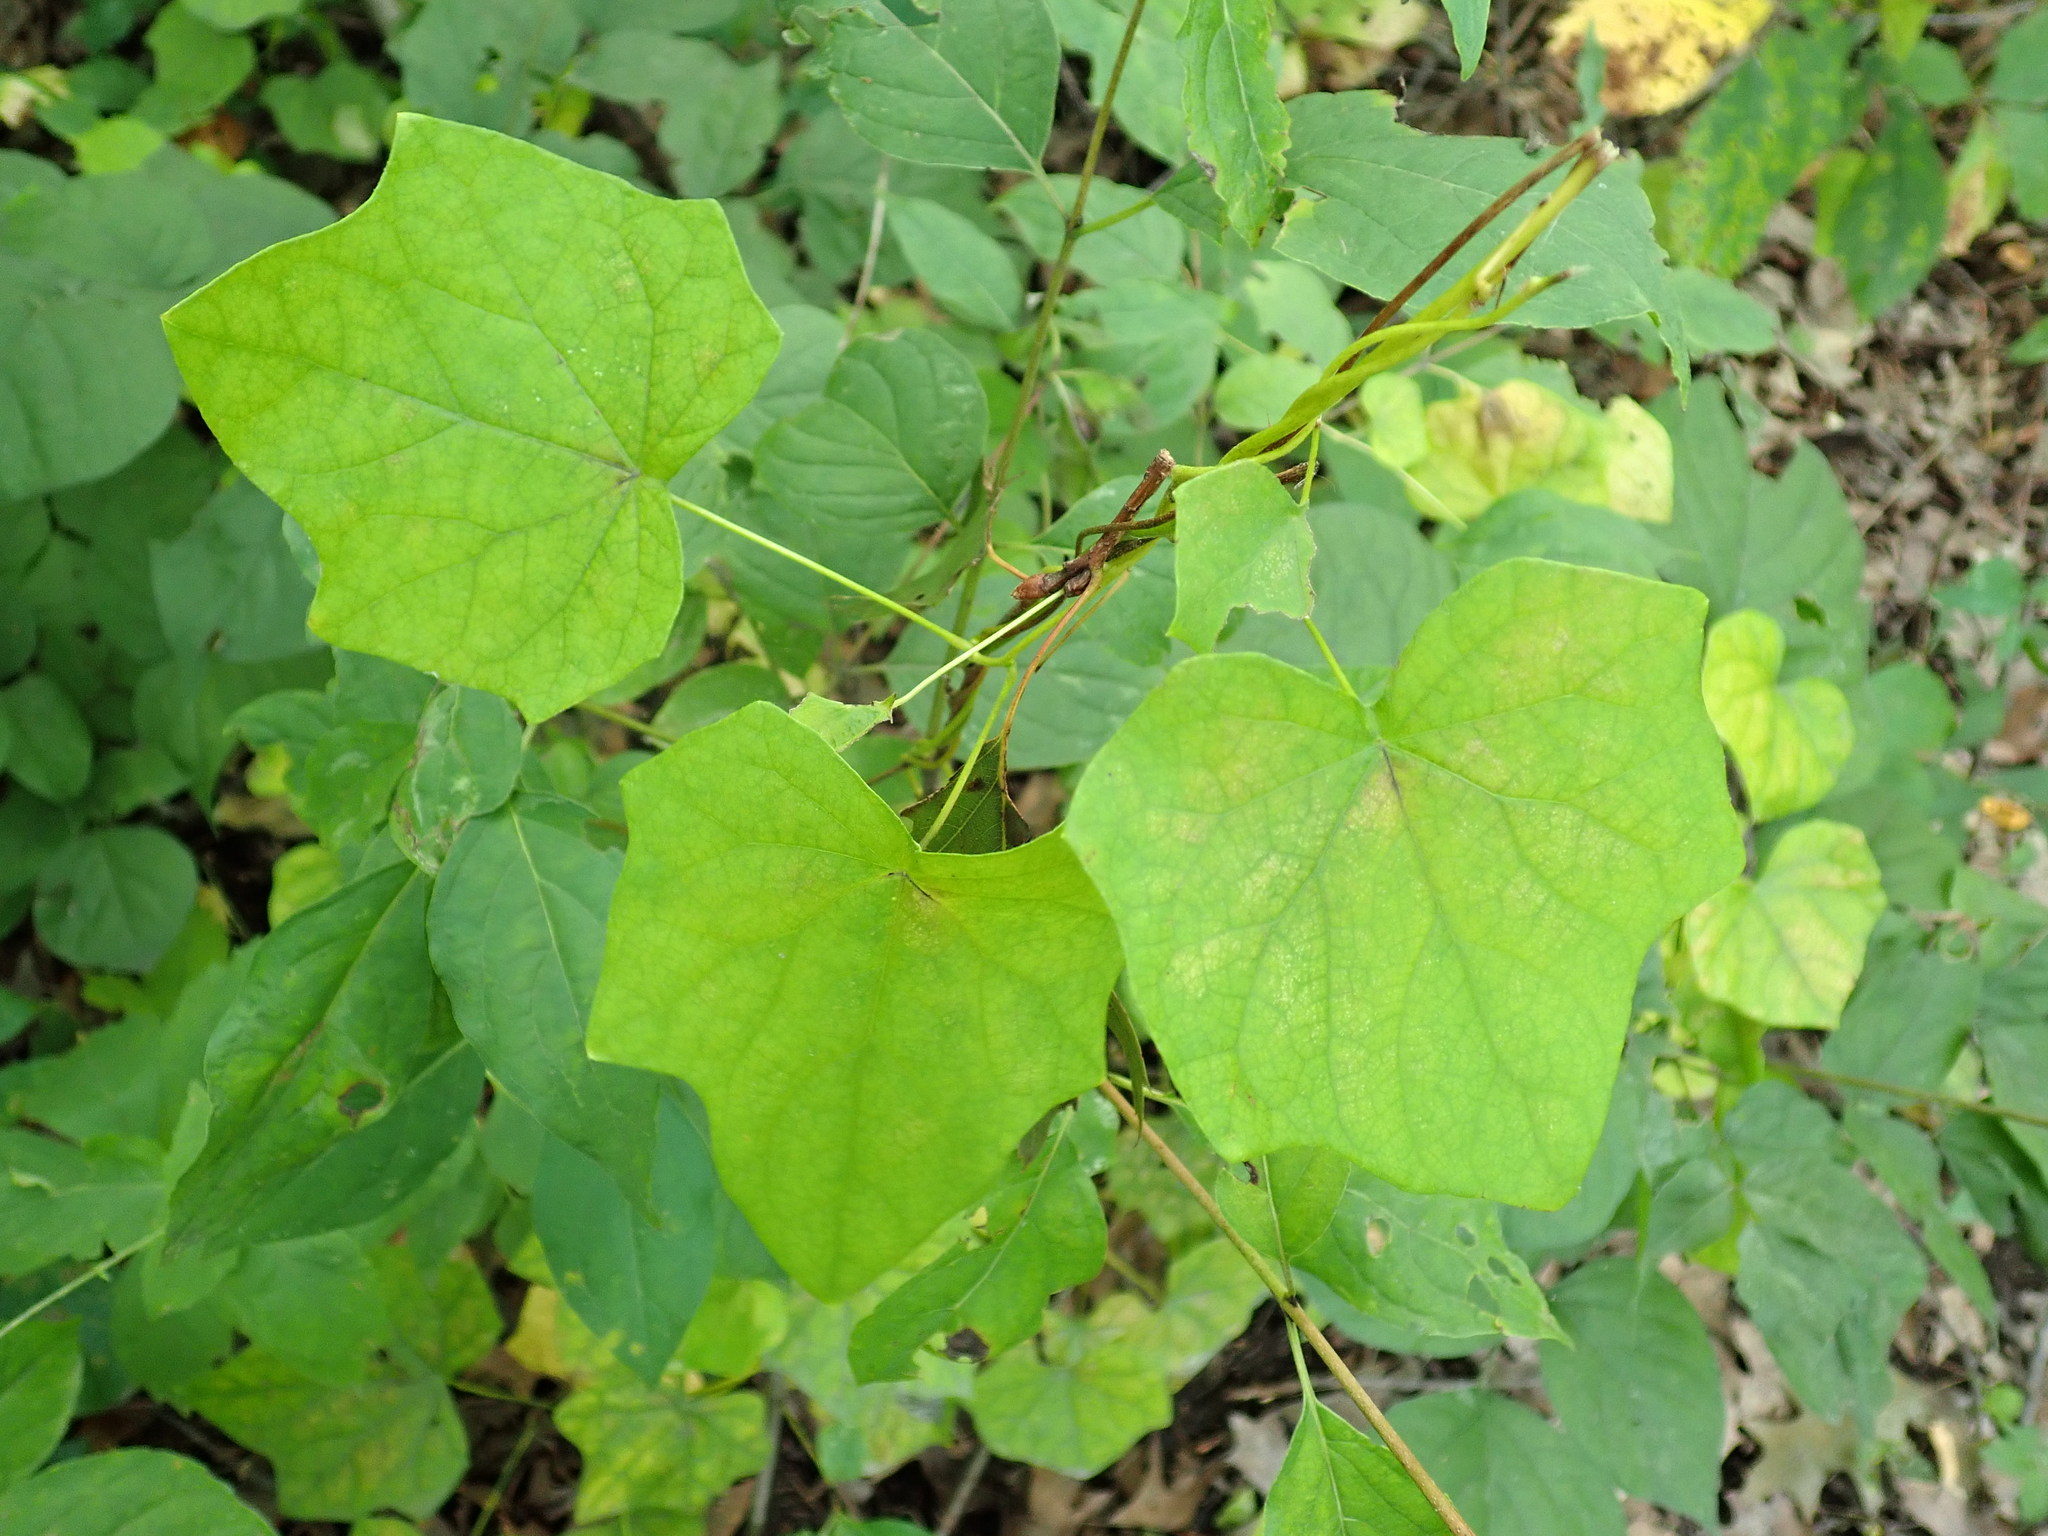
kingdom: Plantae
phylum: Tracheophyta
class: Magnoliopsida
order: Ranunculales
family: Menispermaceae
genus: Menispermum
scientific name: Menispermum canadense
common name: Moonseed
